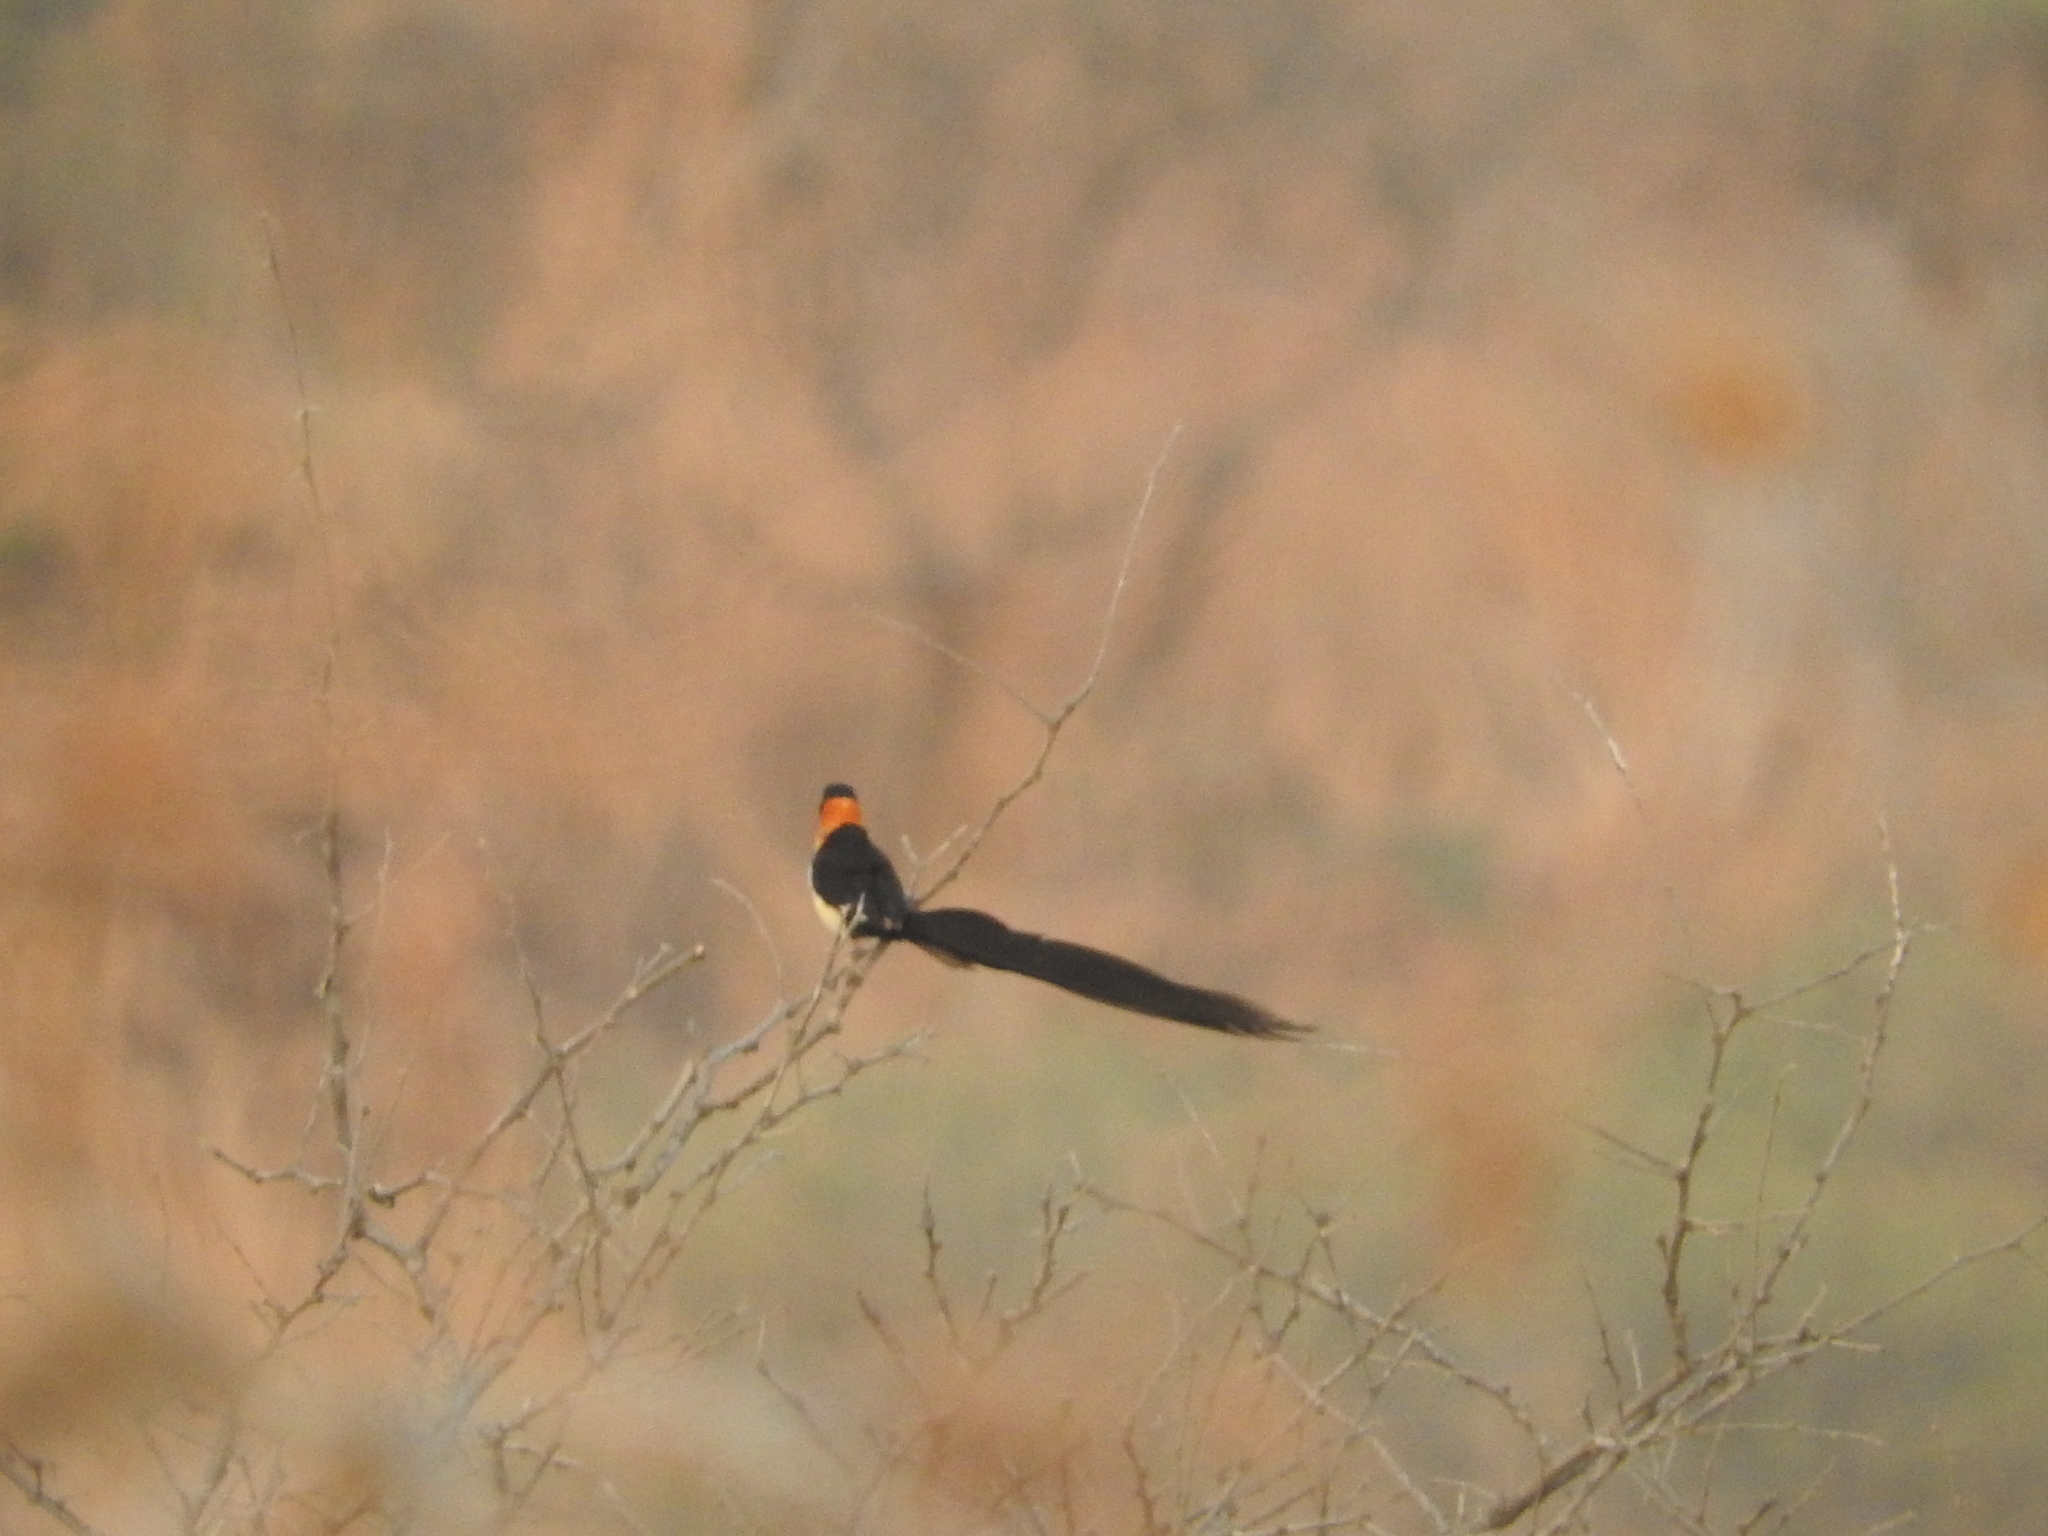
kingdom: Animalia
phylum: Chordata
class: Aves
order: Passeriformes
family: Viduidae
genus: Vidua
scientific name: Vidua orientalis
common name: Sahel paradise whydah
